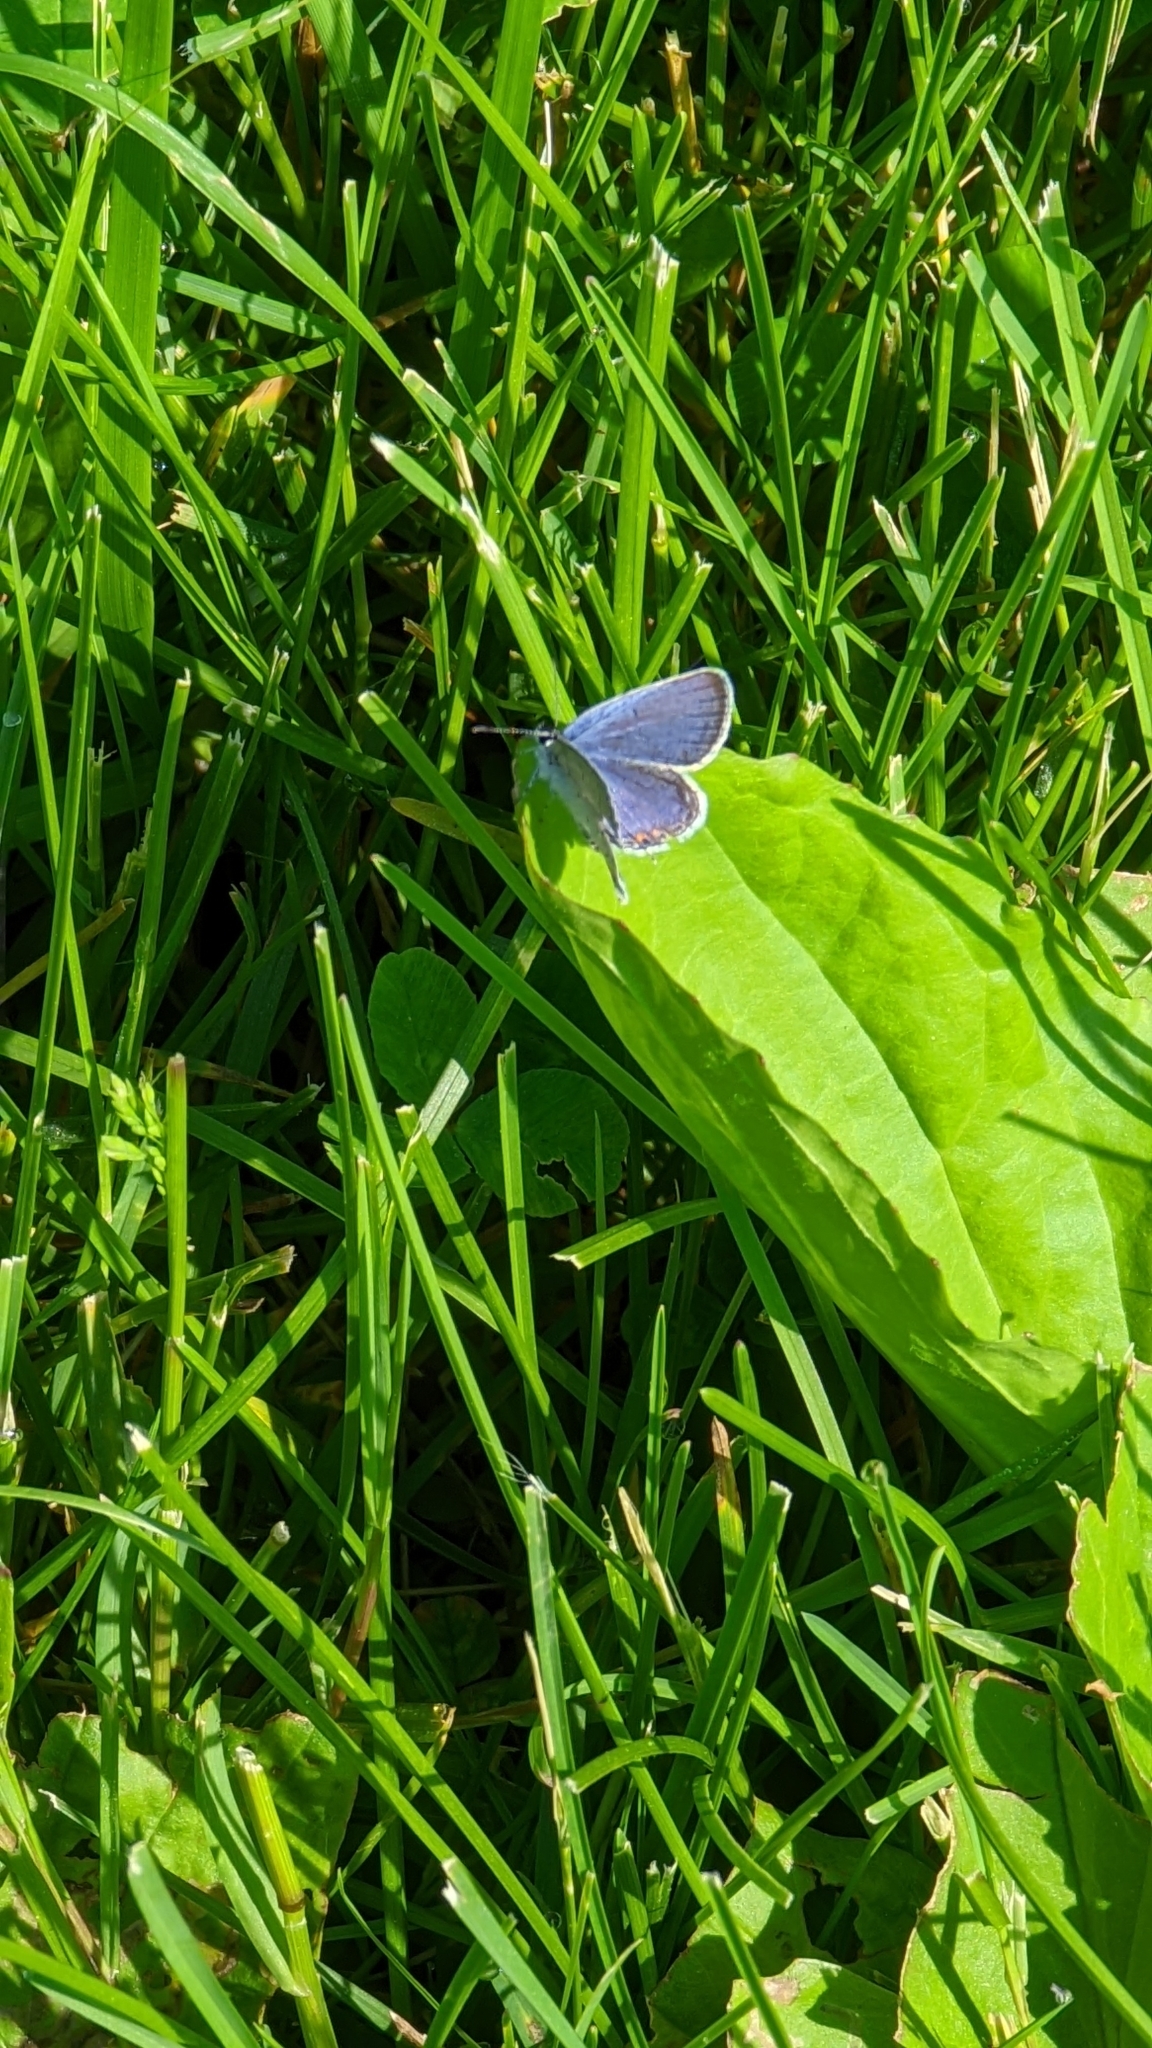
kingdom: Animalia
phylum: Arthropoda
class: Insecta
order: Lepidoptera
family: Lycaenidae
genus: Elkalyce
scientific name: Elkalyce comyntas
